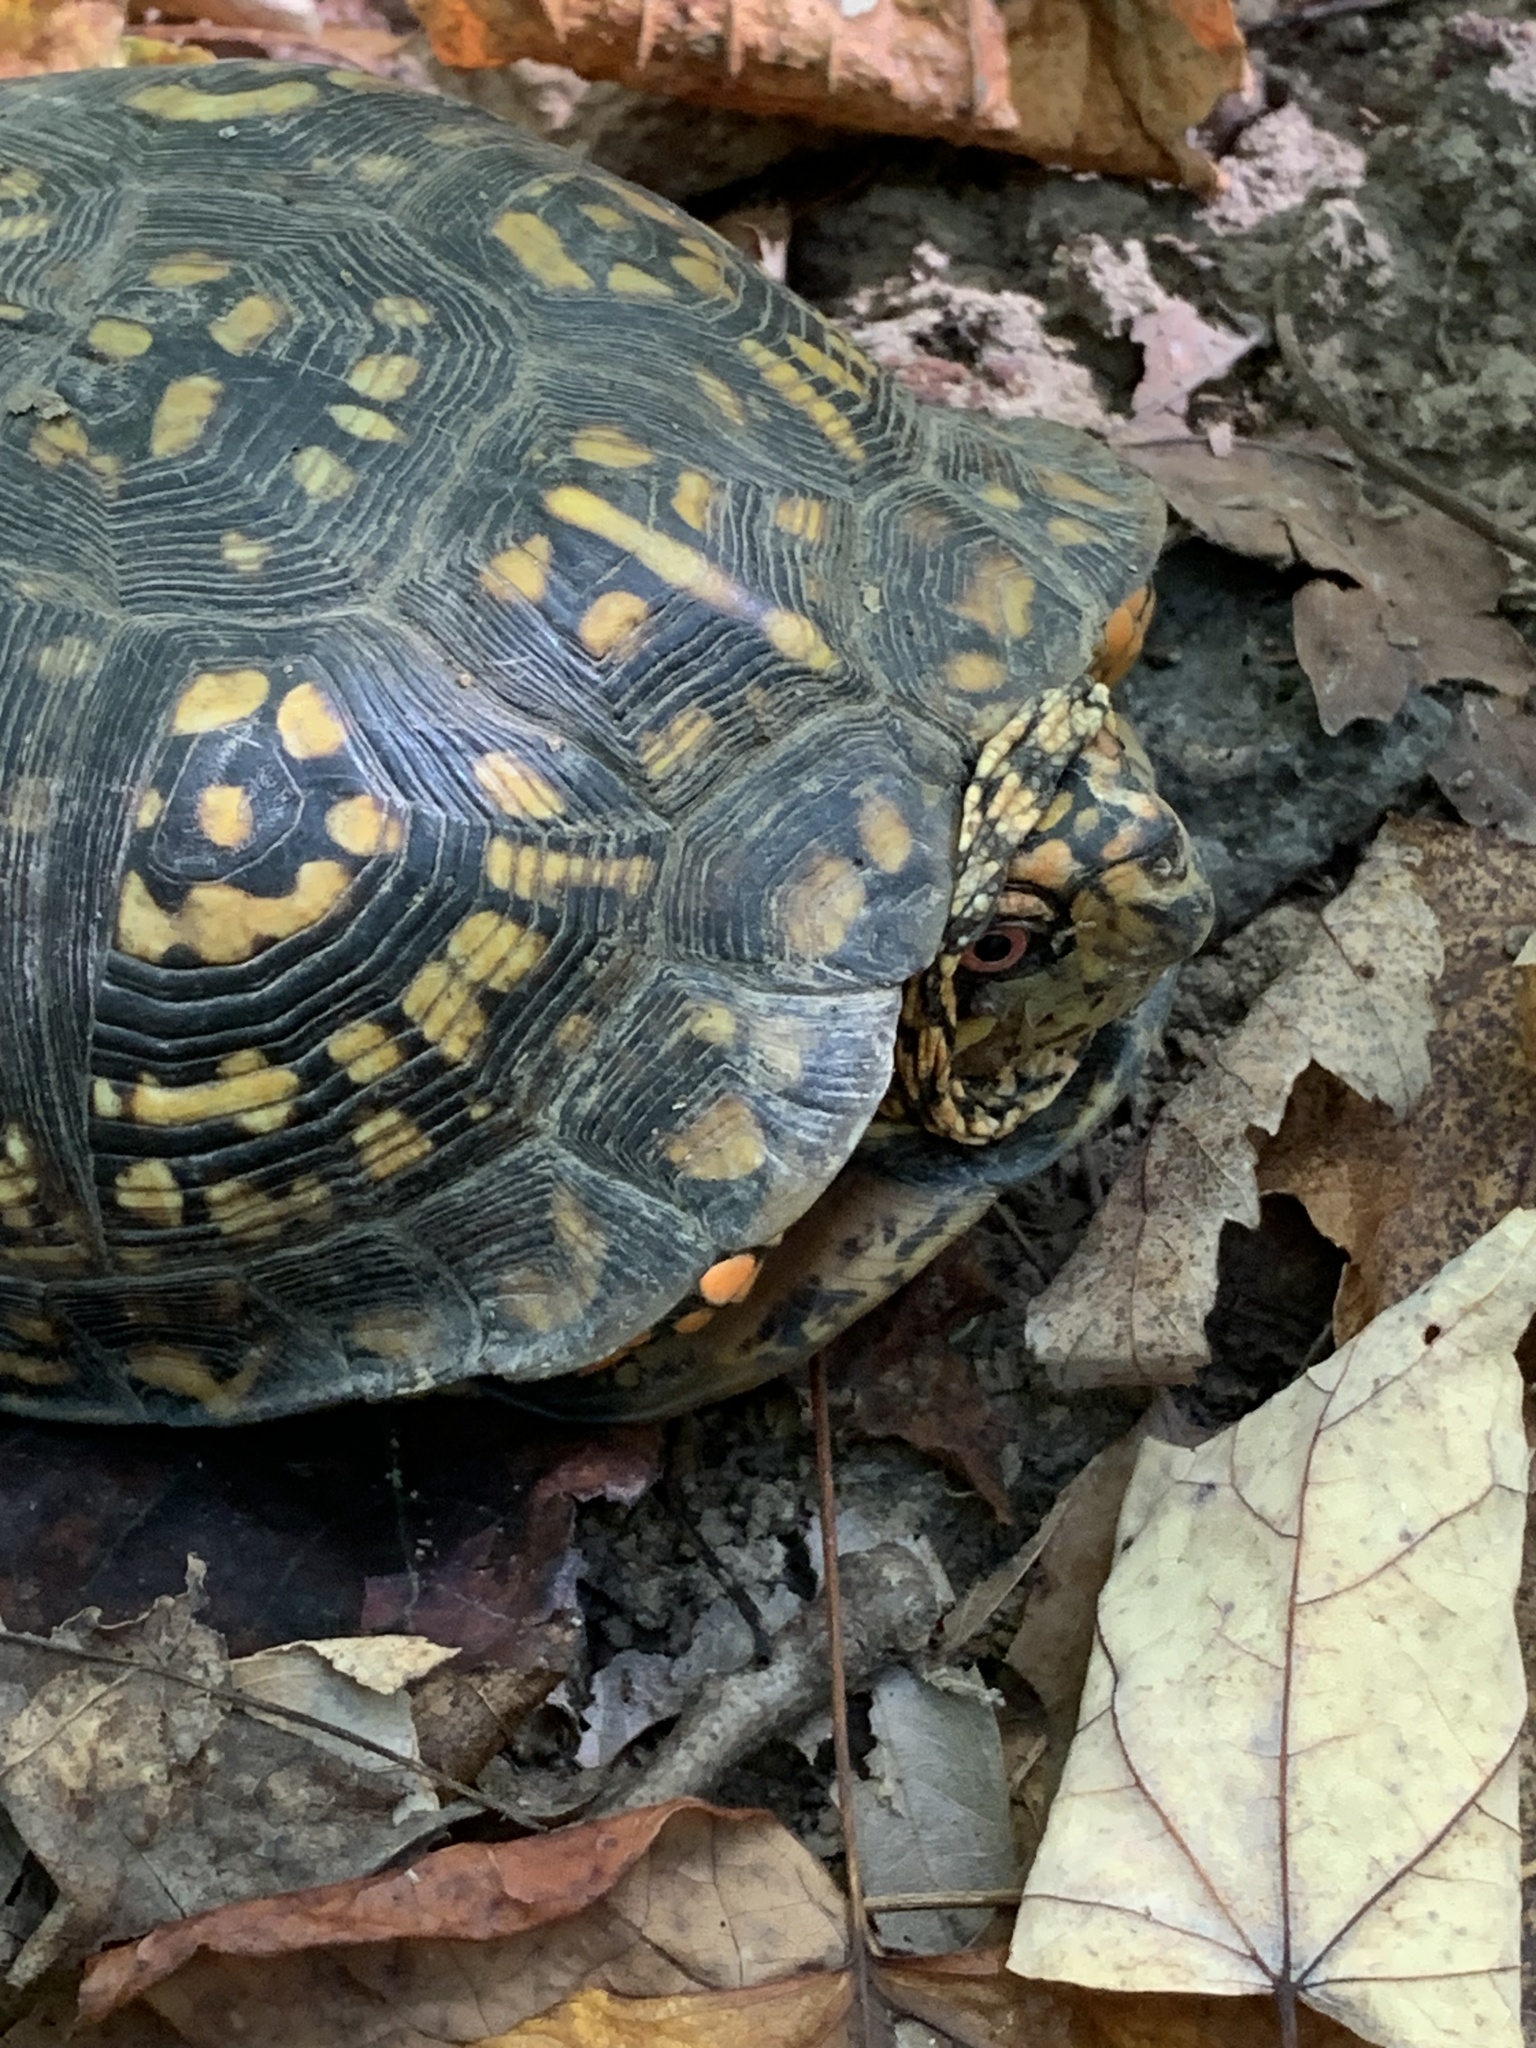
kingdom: Animalia
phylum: Chordata
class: Testudines
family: Emydidae
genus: Terrapene
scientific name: Terrapene carolina
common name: Common box turtle
